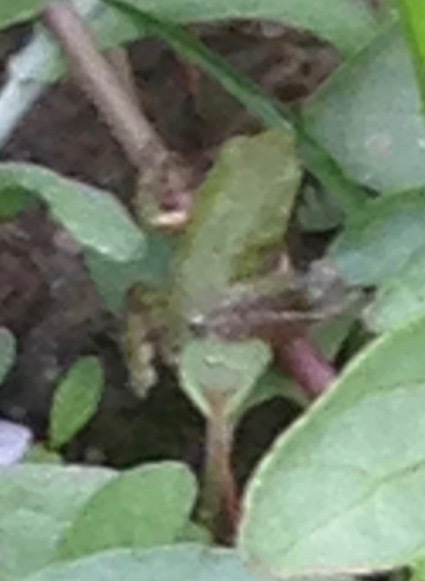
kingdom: Animalia
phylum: Chordata
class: Amphibia
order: Anura
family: Hylidae
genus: Pseudacris
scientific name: Pseudacris regilla
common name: Pacific chorus frog
